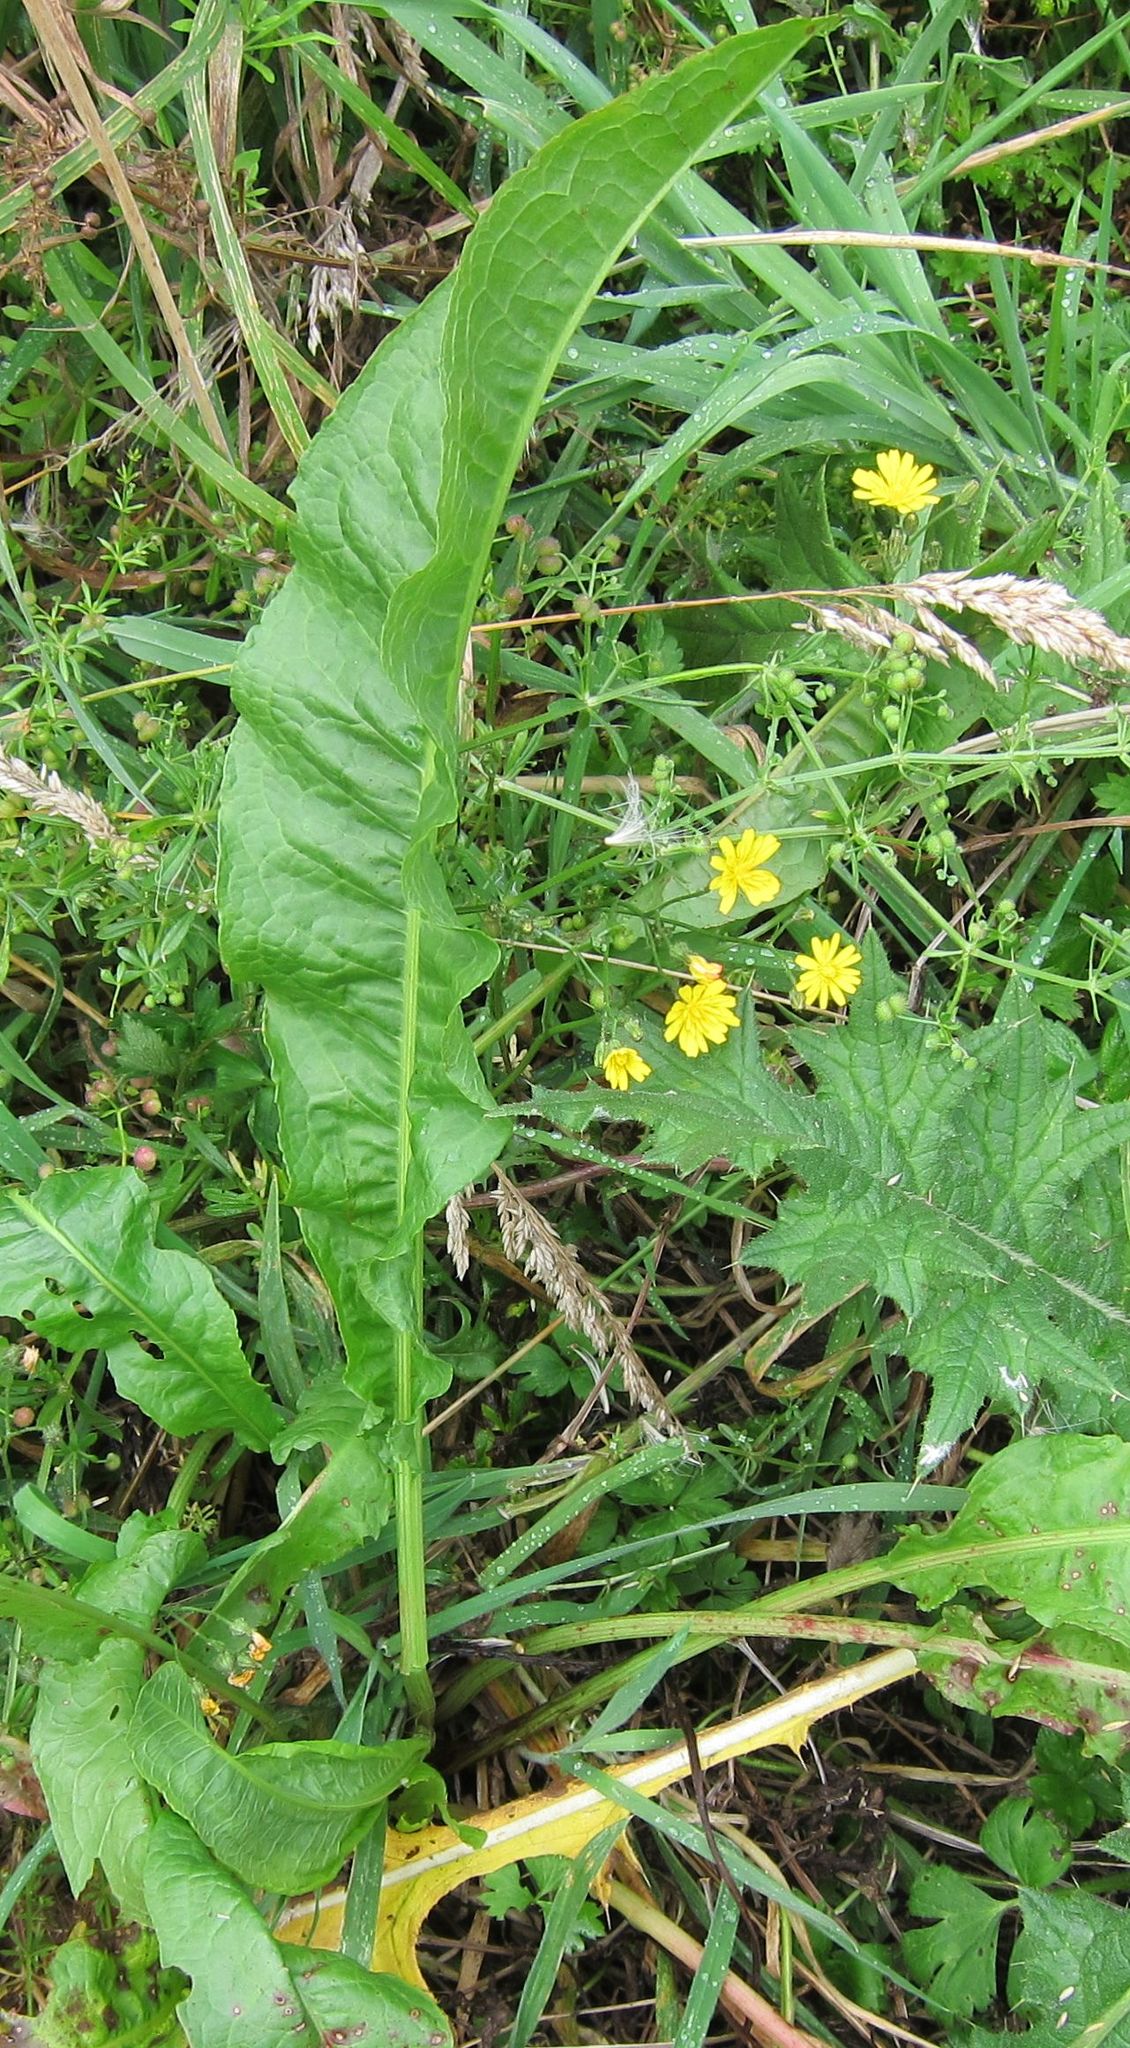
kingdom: Plantae
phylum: Tracheophyta
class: Magnoliopsida
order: Caryophyllales
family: Polygonaceae
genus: Rumex
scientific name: Rumex crispus
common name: Curled dock
